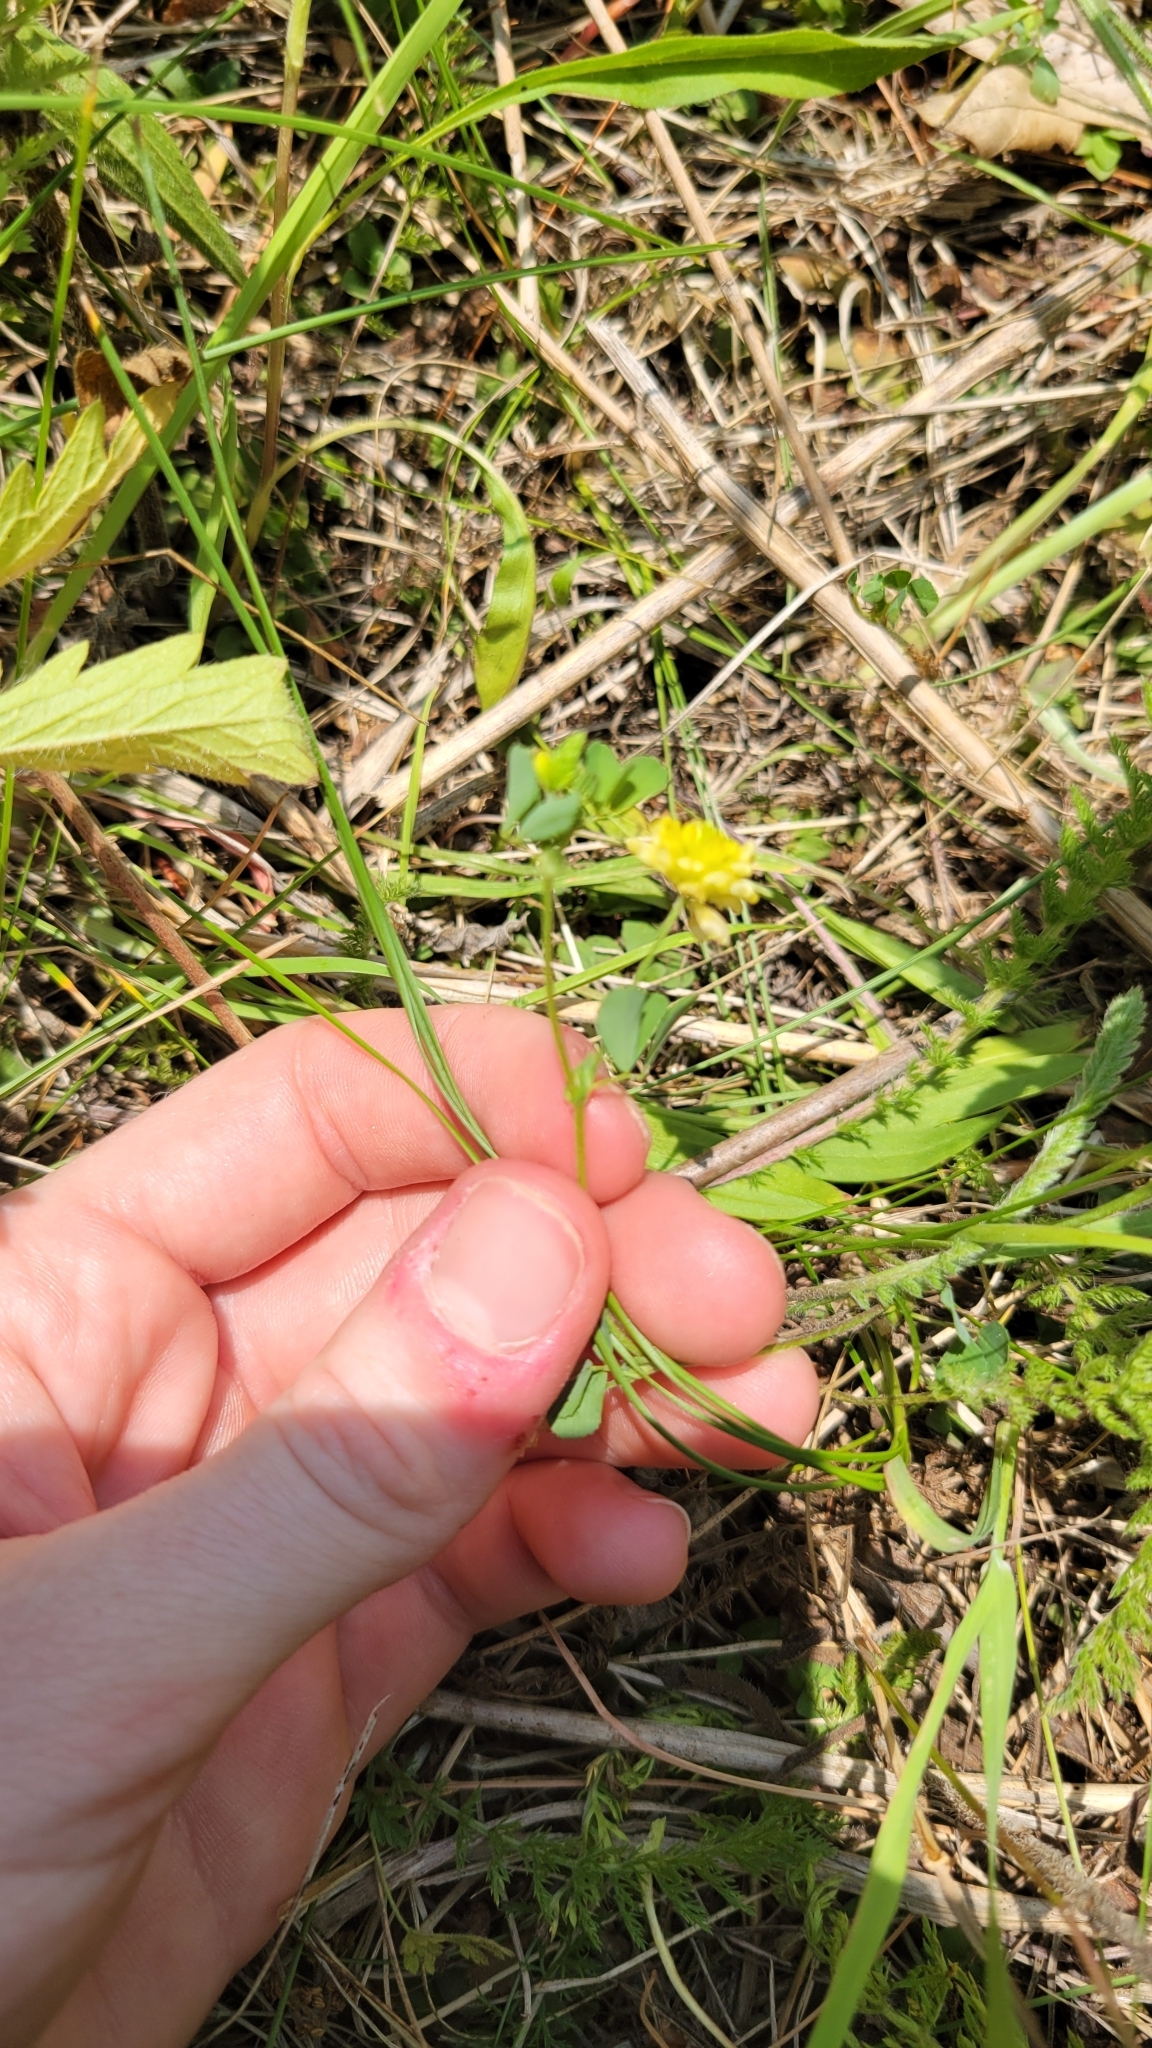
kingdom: Plantae
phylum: Tracheophyta
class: Magnoliopsida
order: Fabales
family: Fabaceae
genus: Trifolium
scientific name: Trifolium campestre
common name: Field clover
